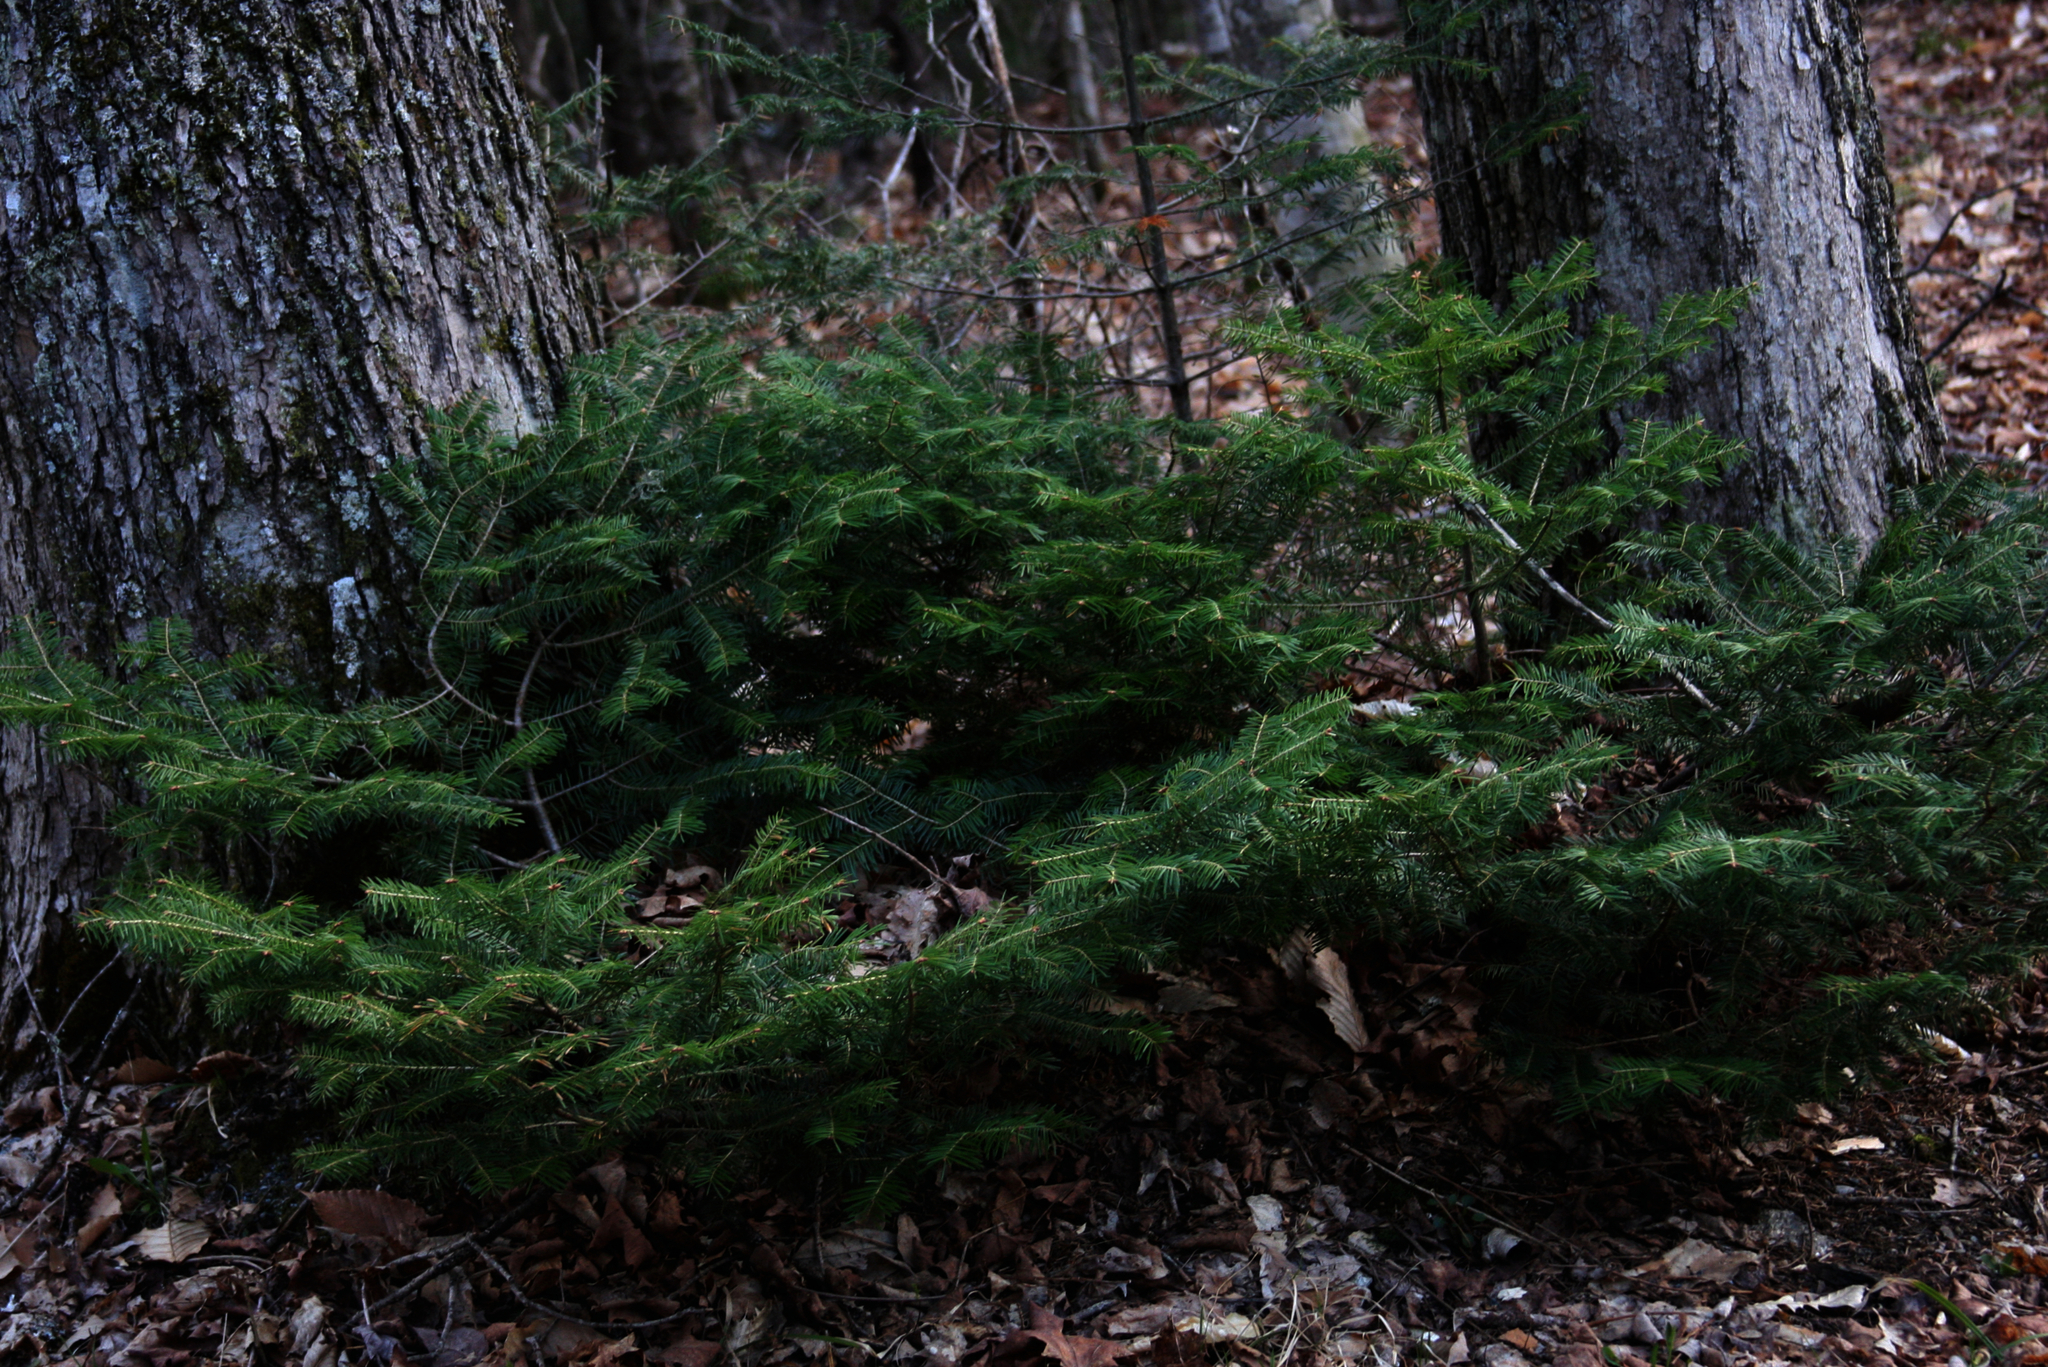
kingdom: Plantae
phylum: Tracheophyta
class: Pinopsida
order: Pinales
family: Pinaceae
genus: Abies
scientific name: Abies balsamea
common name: Balsam fir
